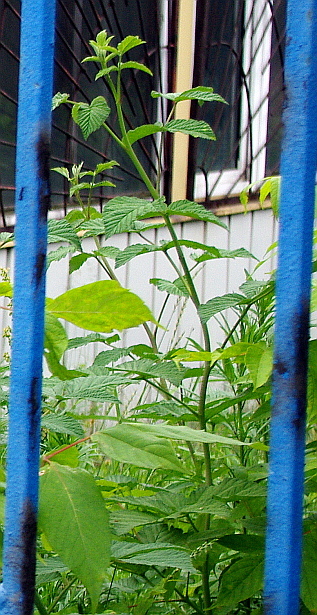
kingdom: Plantae
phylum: Tracheophyta
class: Magnoliopsida
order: Rosales
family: Rosaceae
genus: Rubus
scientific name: Rubus idaeus
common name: Raspberry
